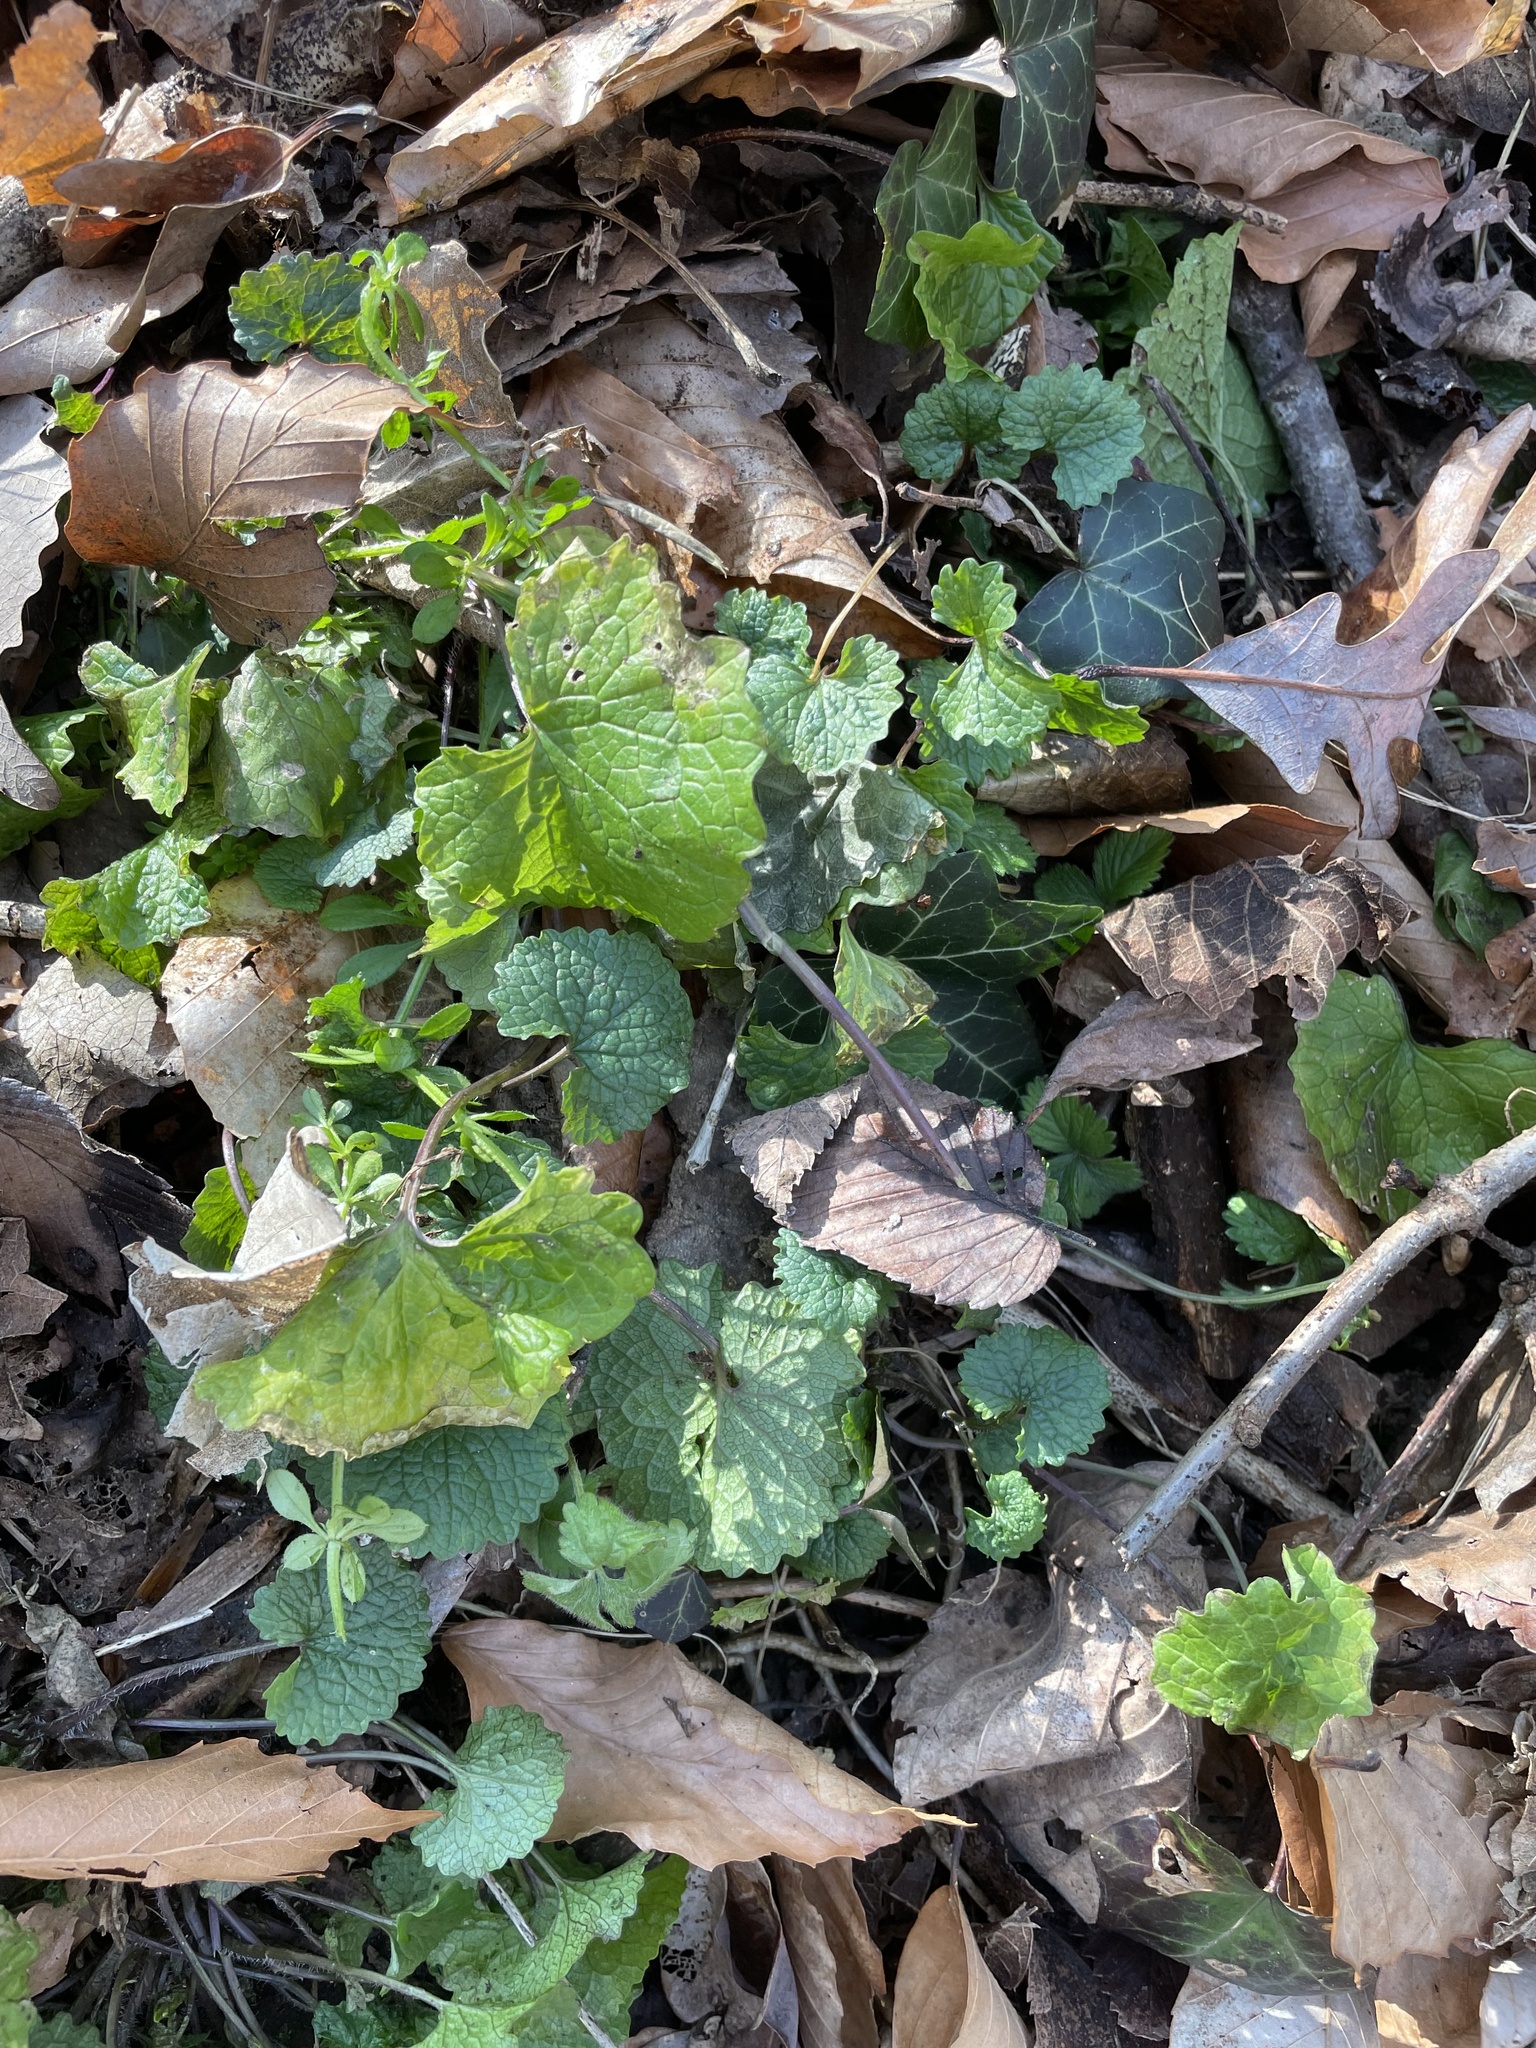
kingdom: Plantae
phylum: Tracheophyta
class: Magnoliopsida
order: Brassicales
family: Brassicaceae
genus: Alliaria
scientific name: Alliaria petiolata
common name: Garlic mustard
